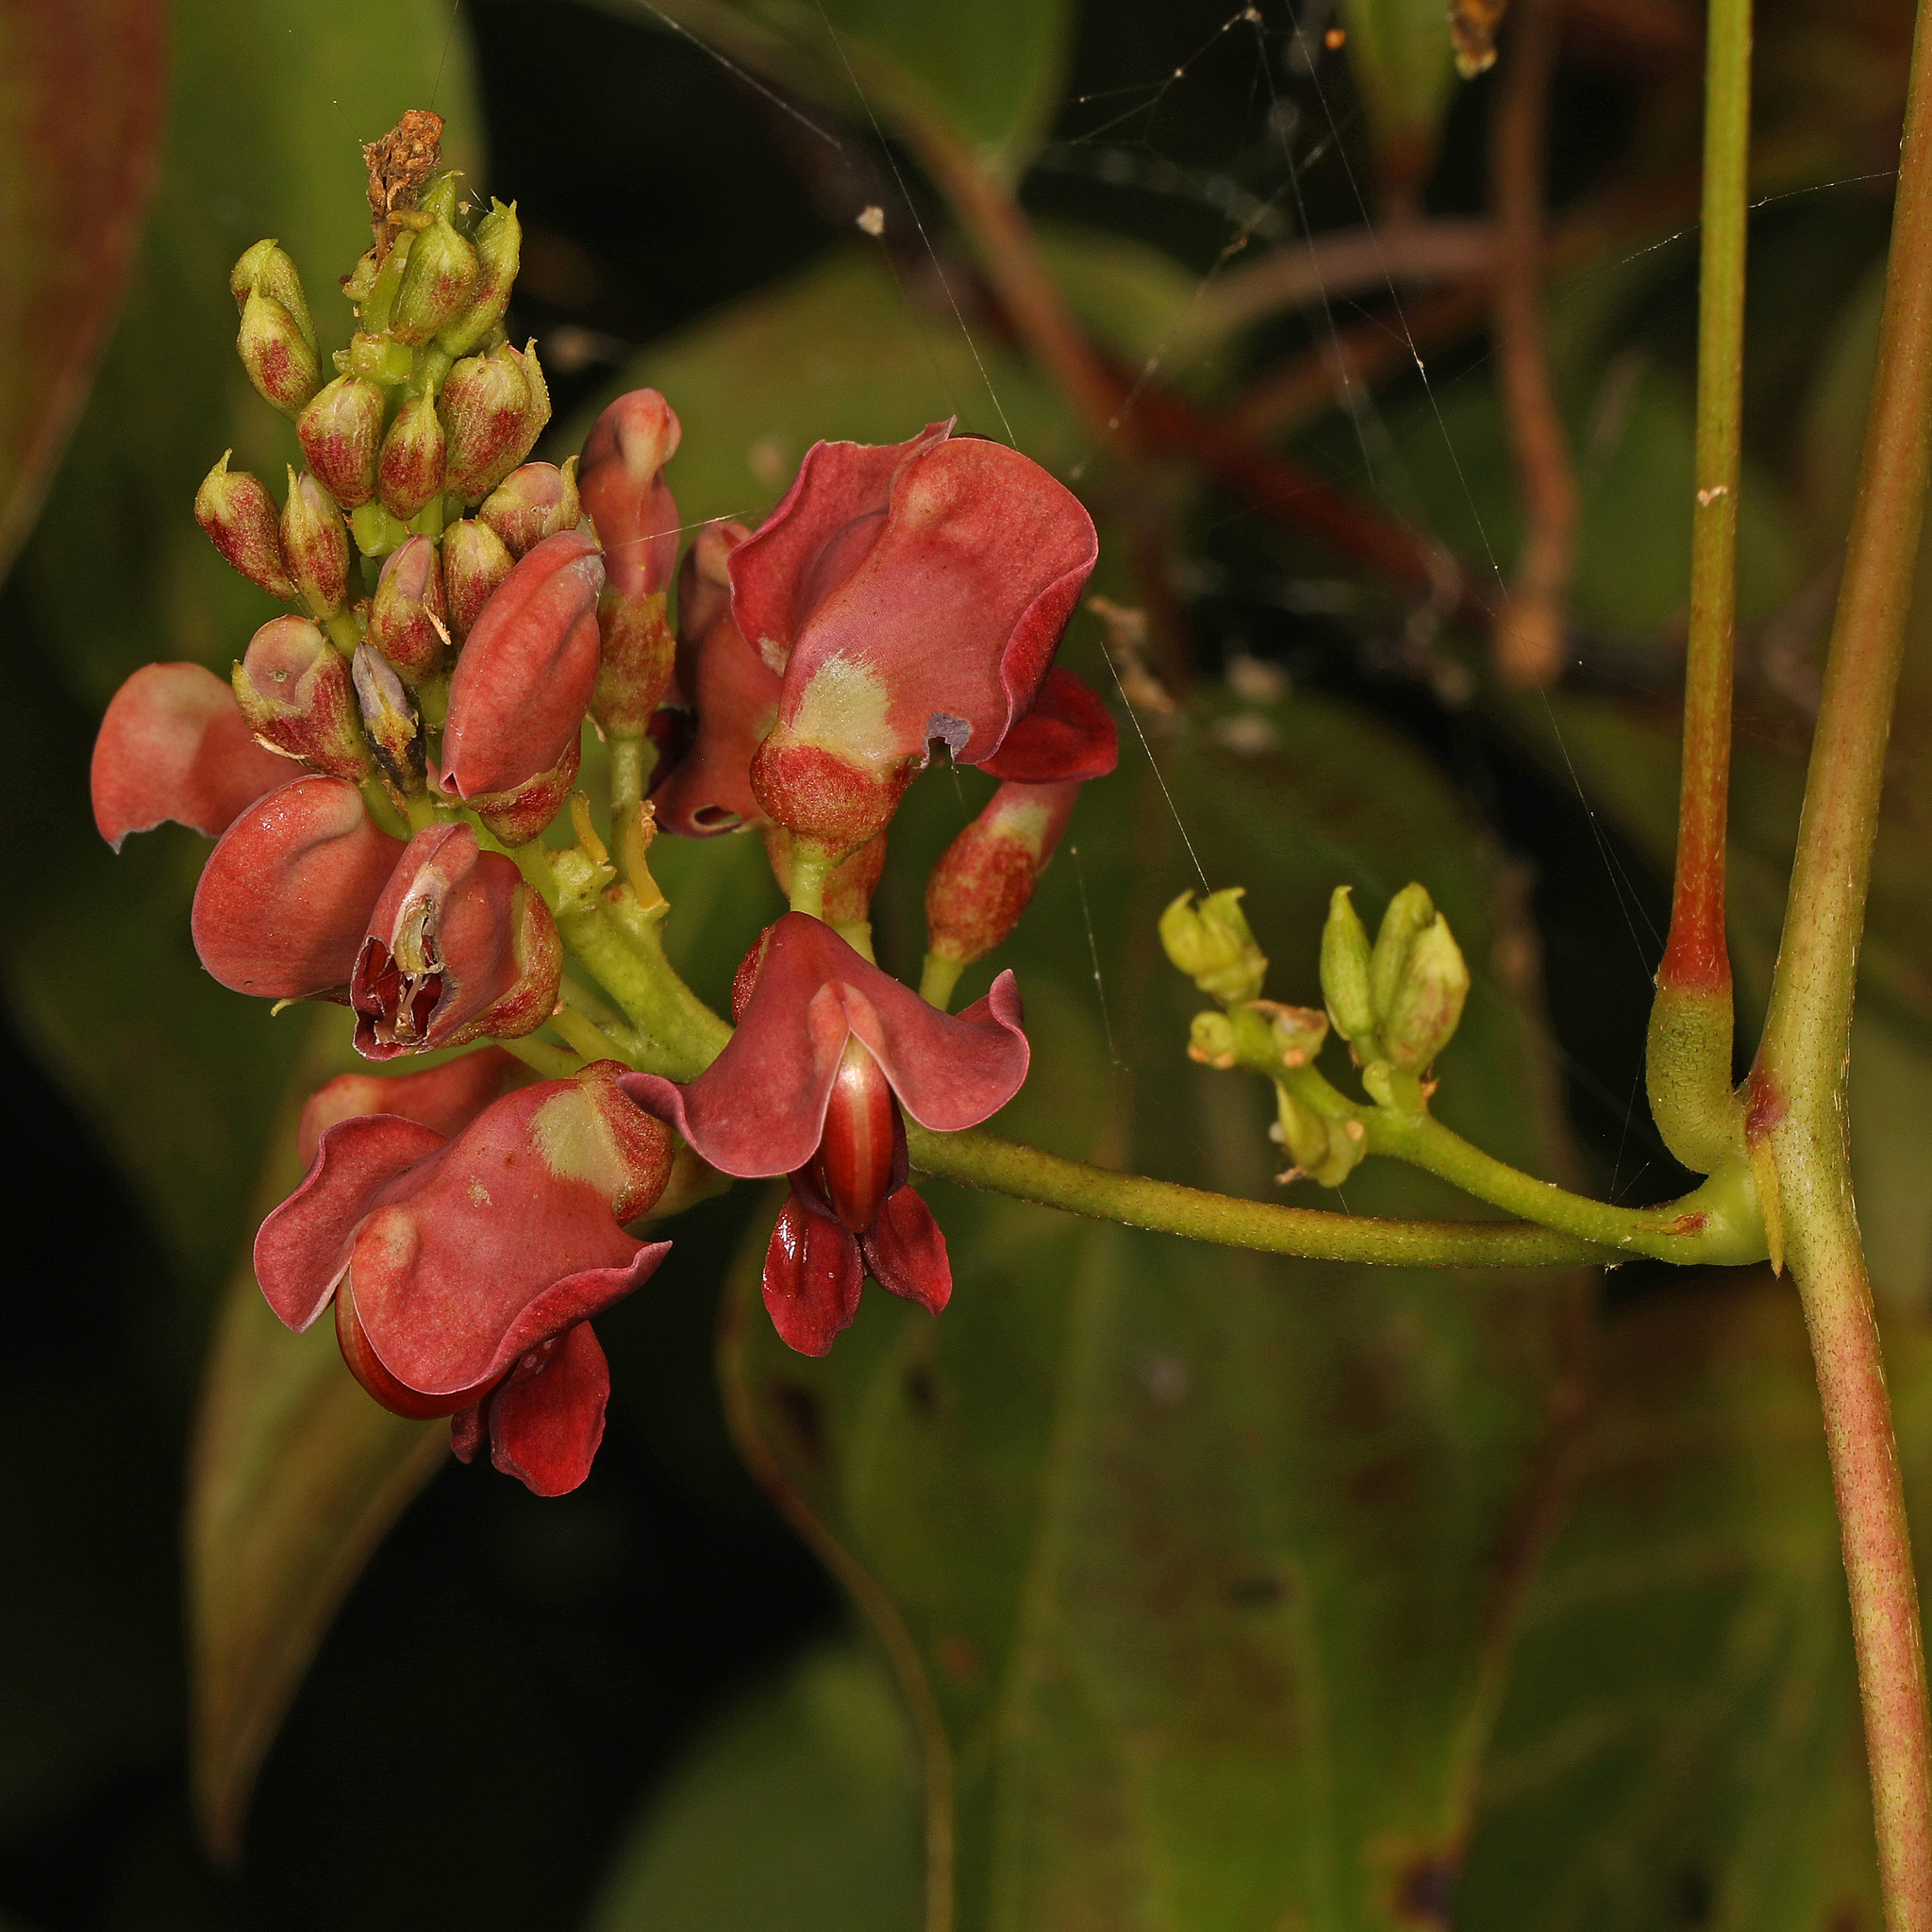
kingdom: Plantae
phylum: Tracheophyta
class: Magnoliopsida
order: Fabales
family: Fabaceae
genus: Apios
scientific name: Apios americana
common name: American potato-bean
